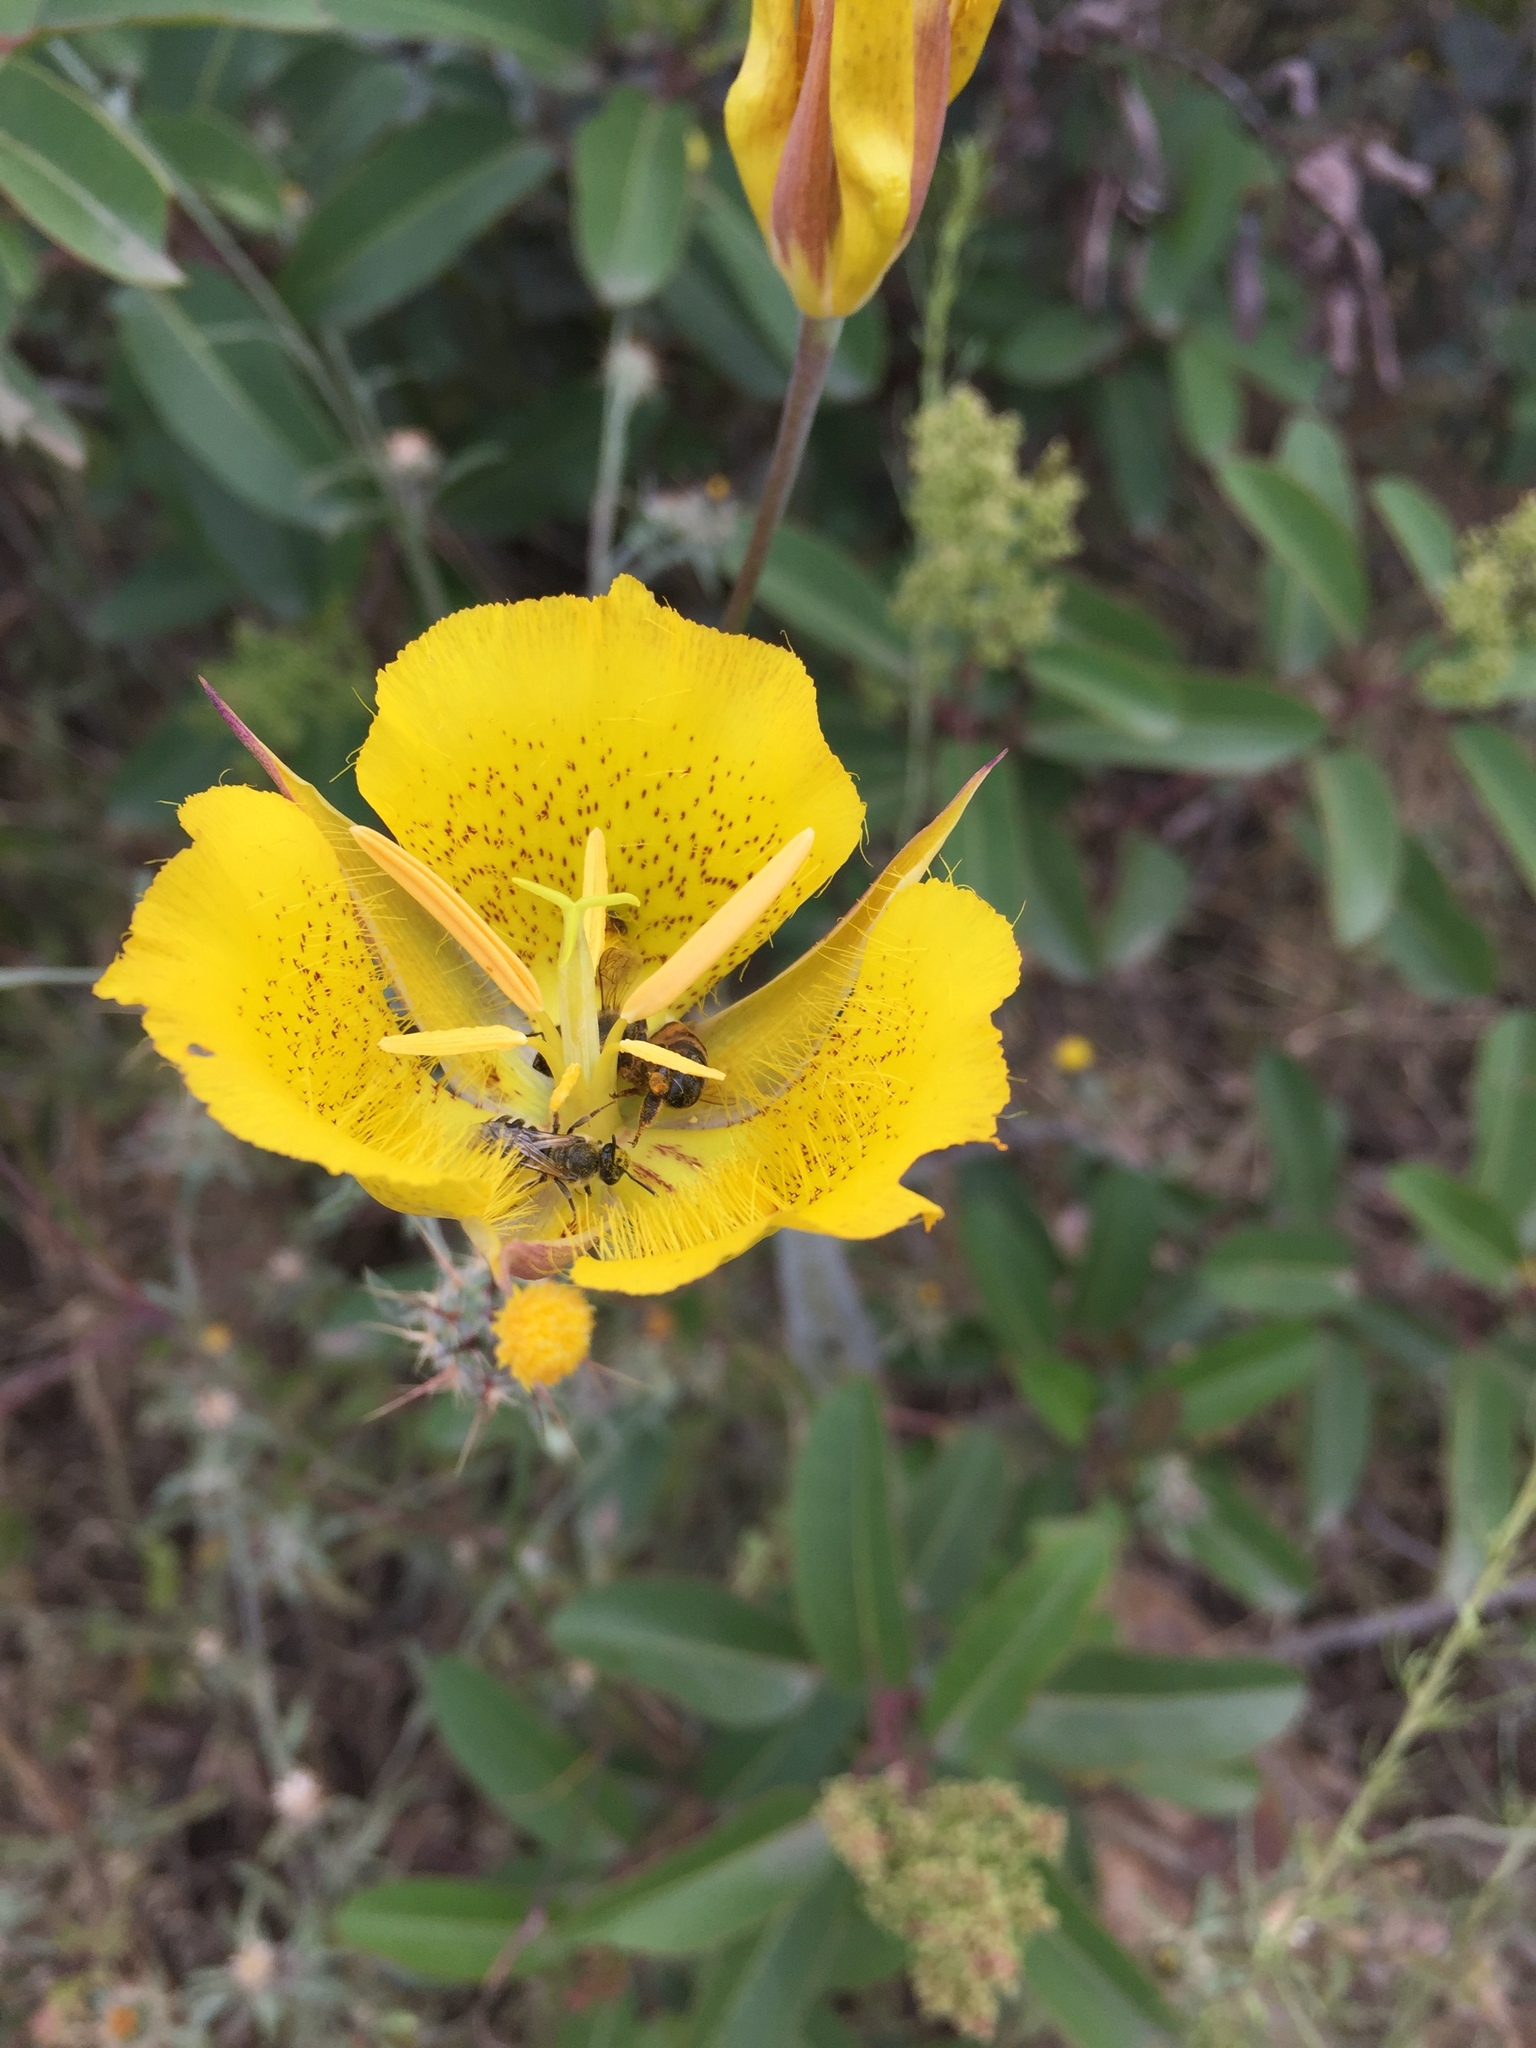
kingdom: Plantae
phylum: Tracheophyta
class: Liliopsida
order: Liliales
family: Liliaceae
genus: Calochortus
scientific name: Calochortus weedii
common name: Weed's mariposa-lily
